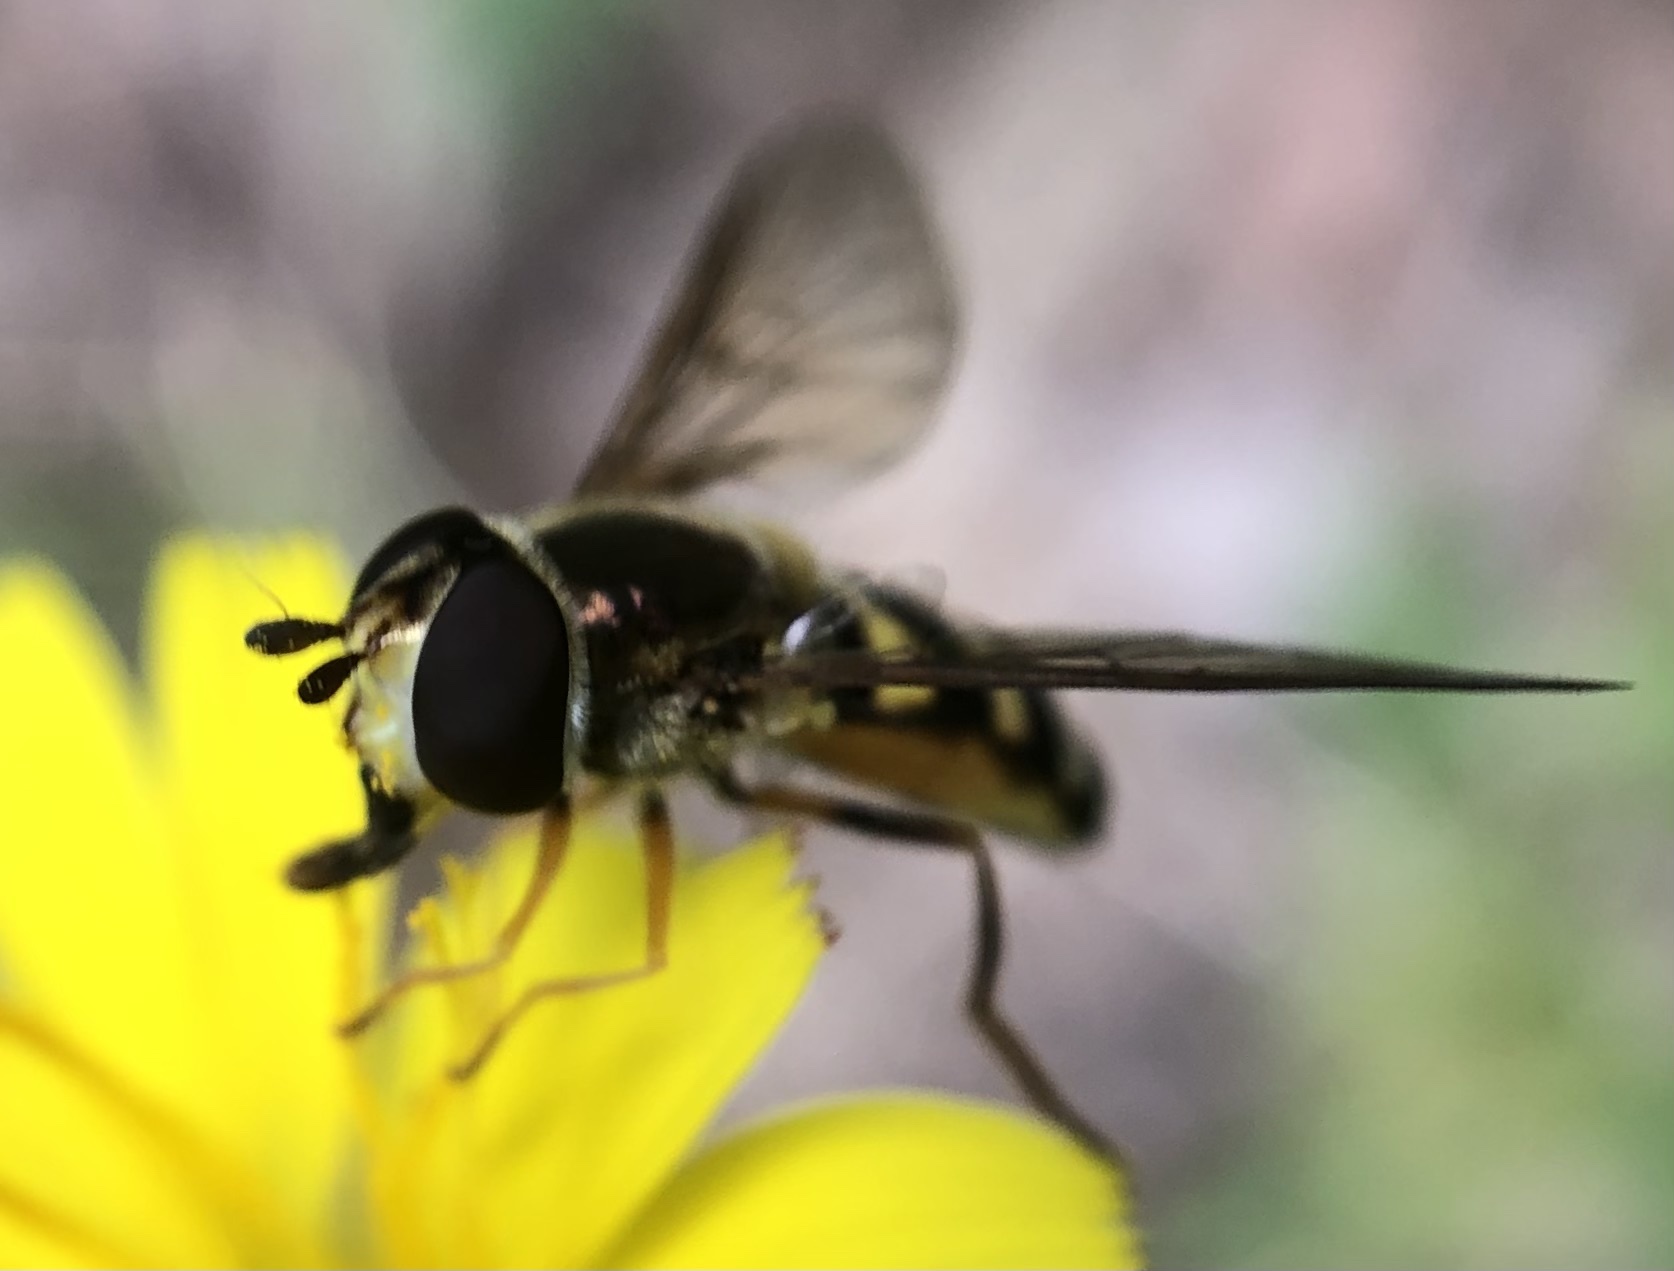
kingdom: Animalia
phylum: Arthropoda
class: Insecta
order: Diptera
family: Syrphidae
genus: Eupeodes
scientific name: Eupeodes
